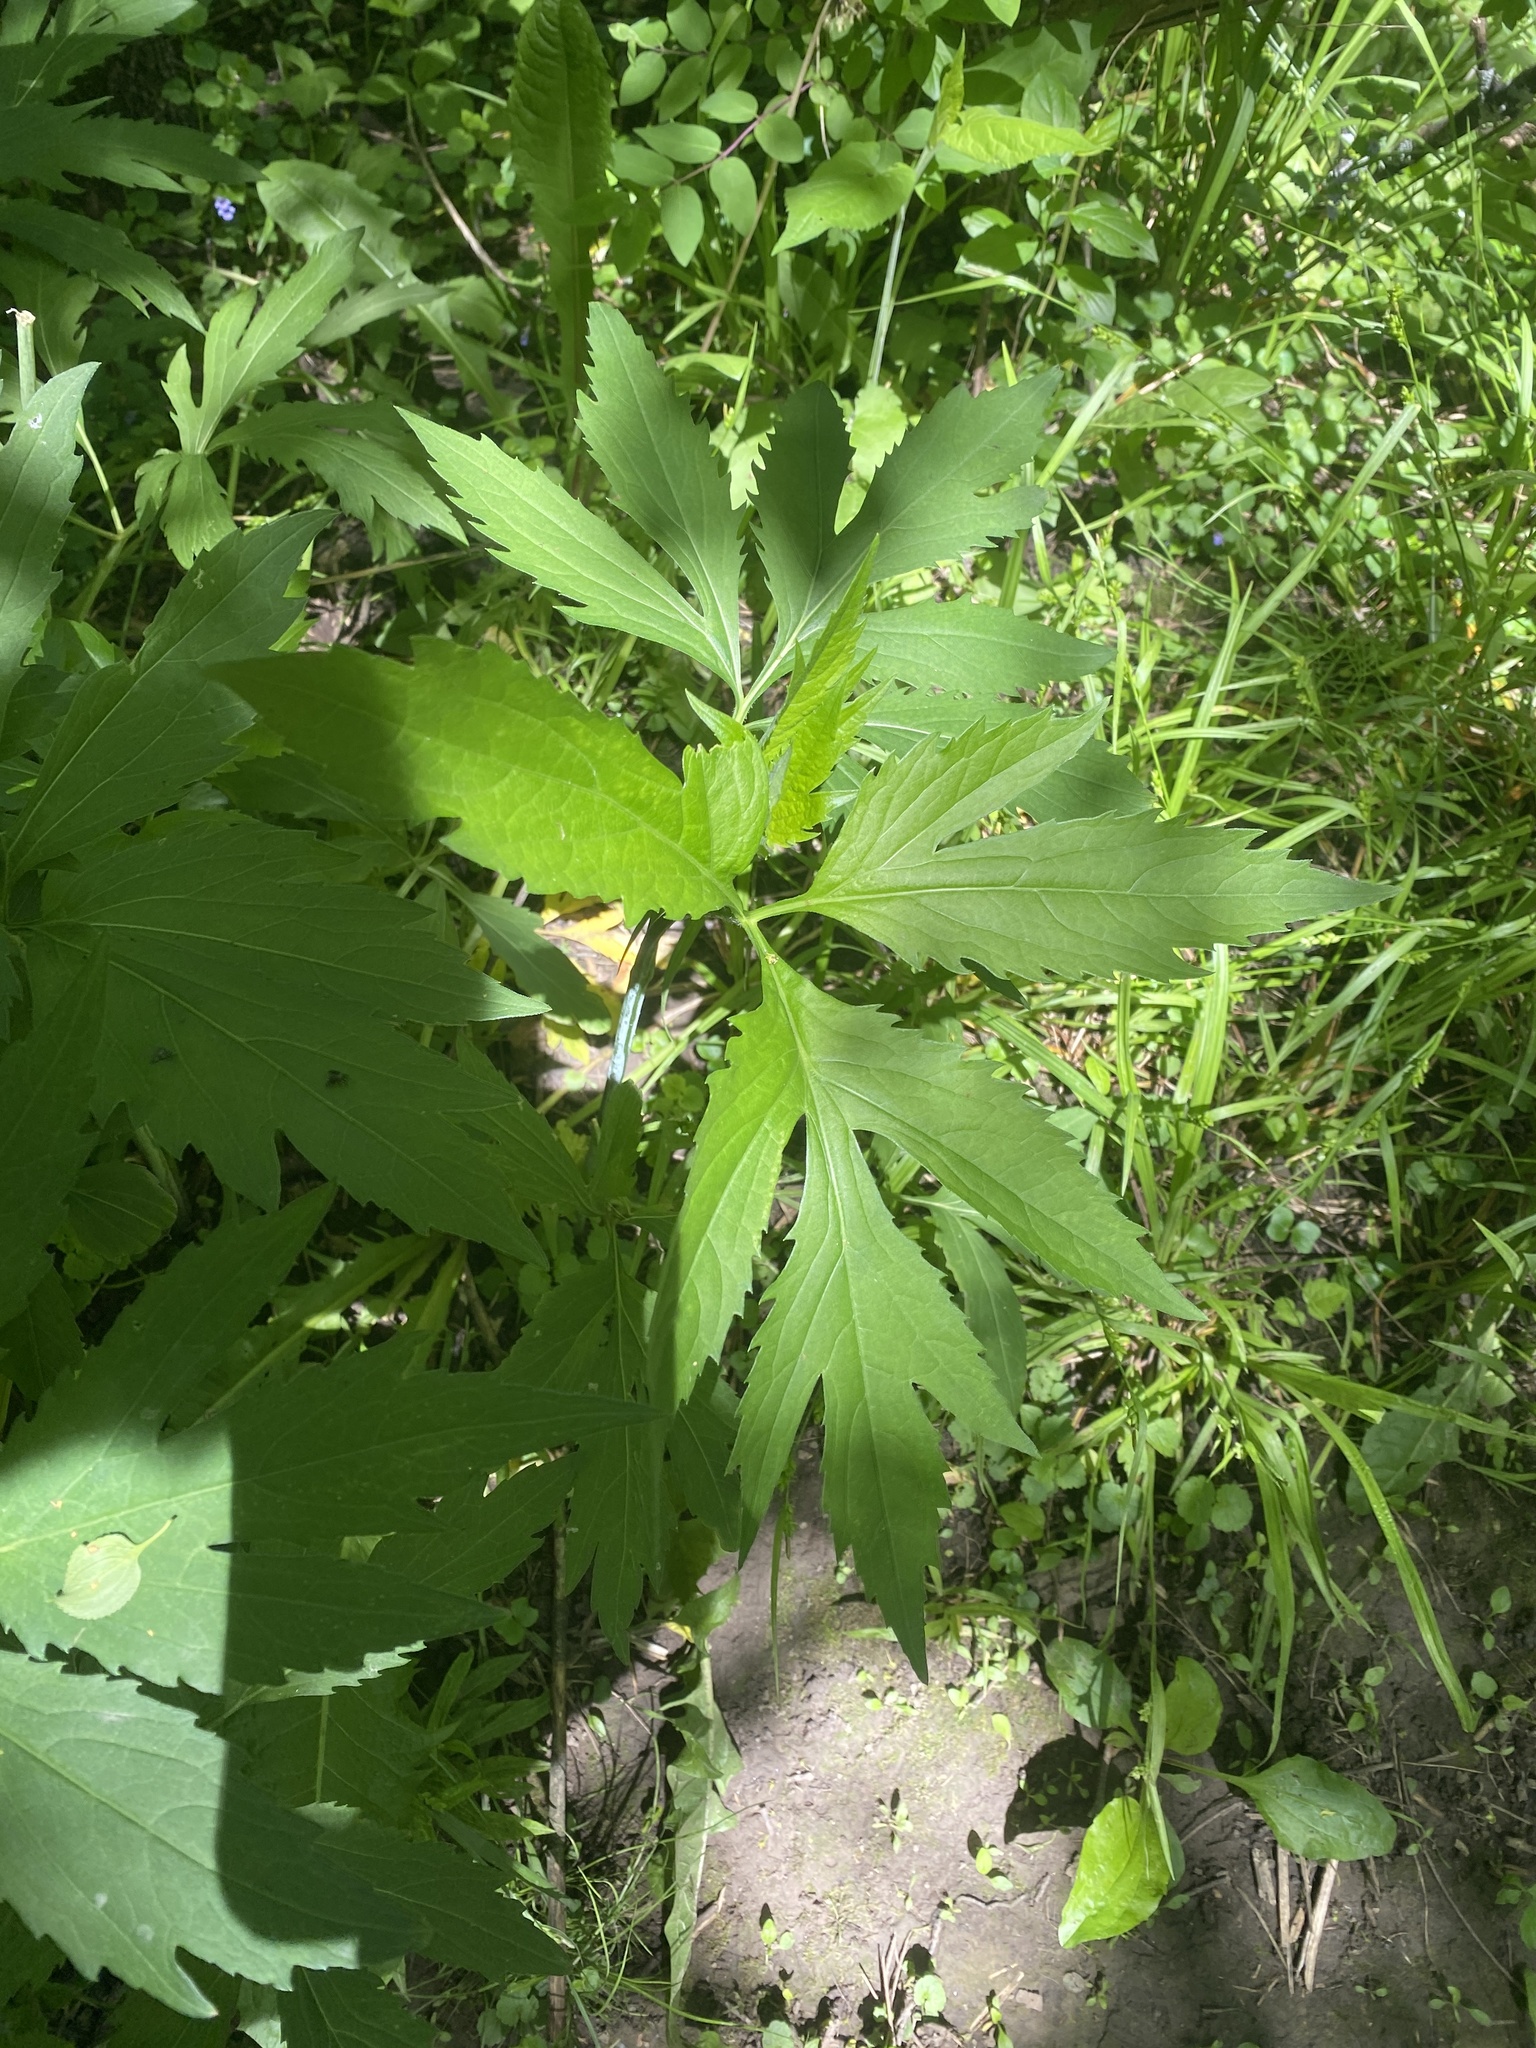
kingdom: Plantae
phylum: Tracheophyta
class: Magnoliopsida
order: Asterales
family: Asteraceae
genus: Rudbeckia
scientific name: Rudbeckia laciniata
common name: Coneflower
